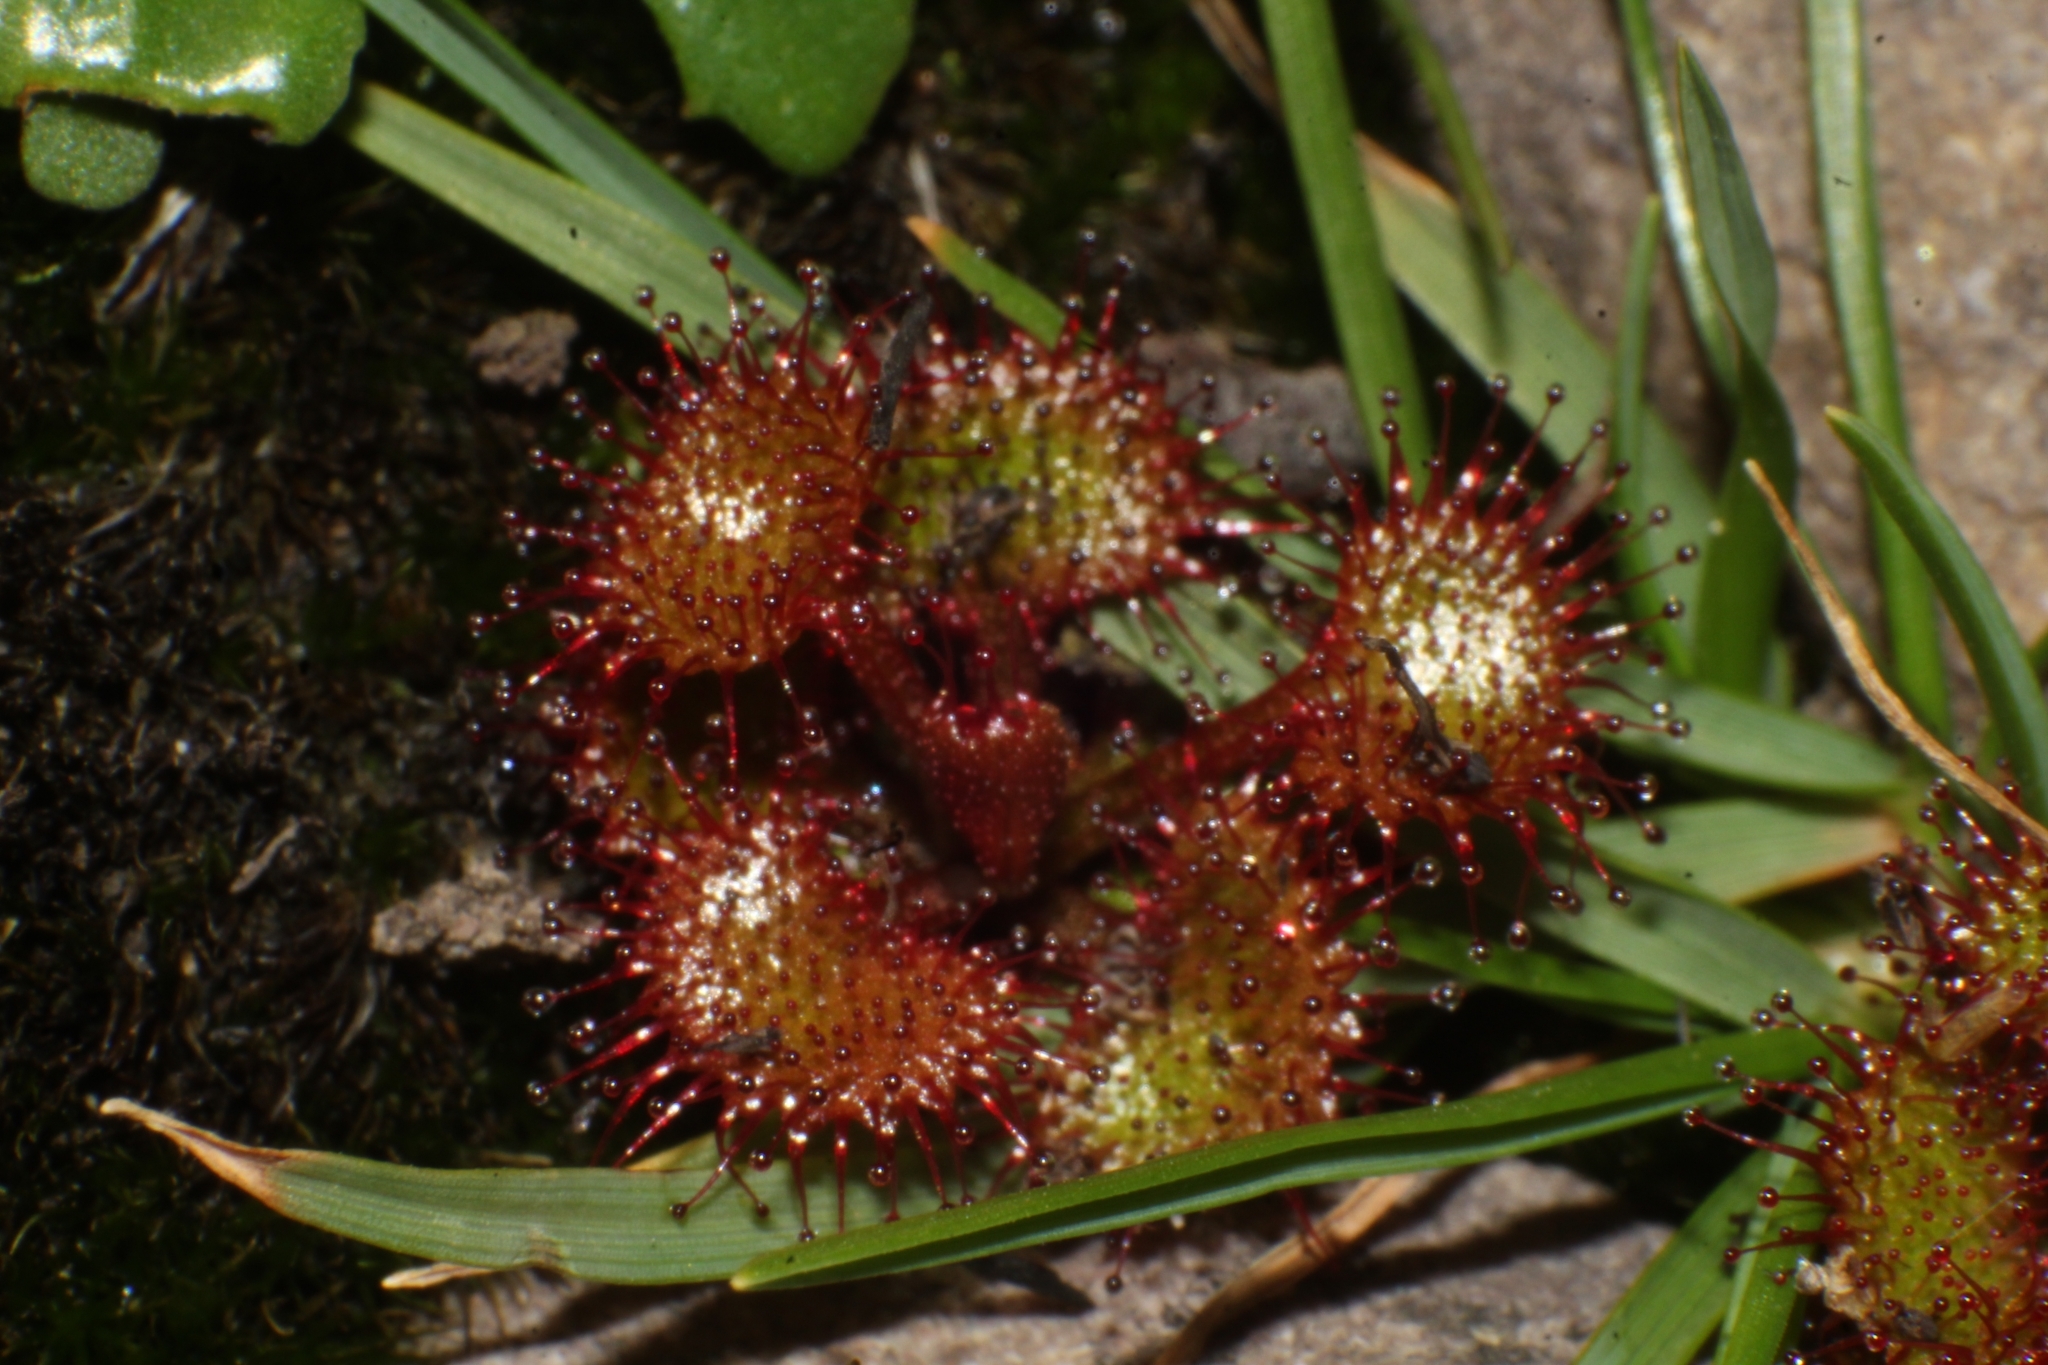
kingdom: Plantae
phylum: Tracheophyta
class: Magnoliopsida
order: Caryophyllales
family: Droseraceae
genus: Drosera
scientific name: Drosera monticola
